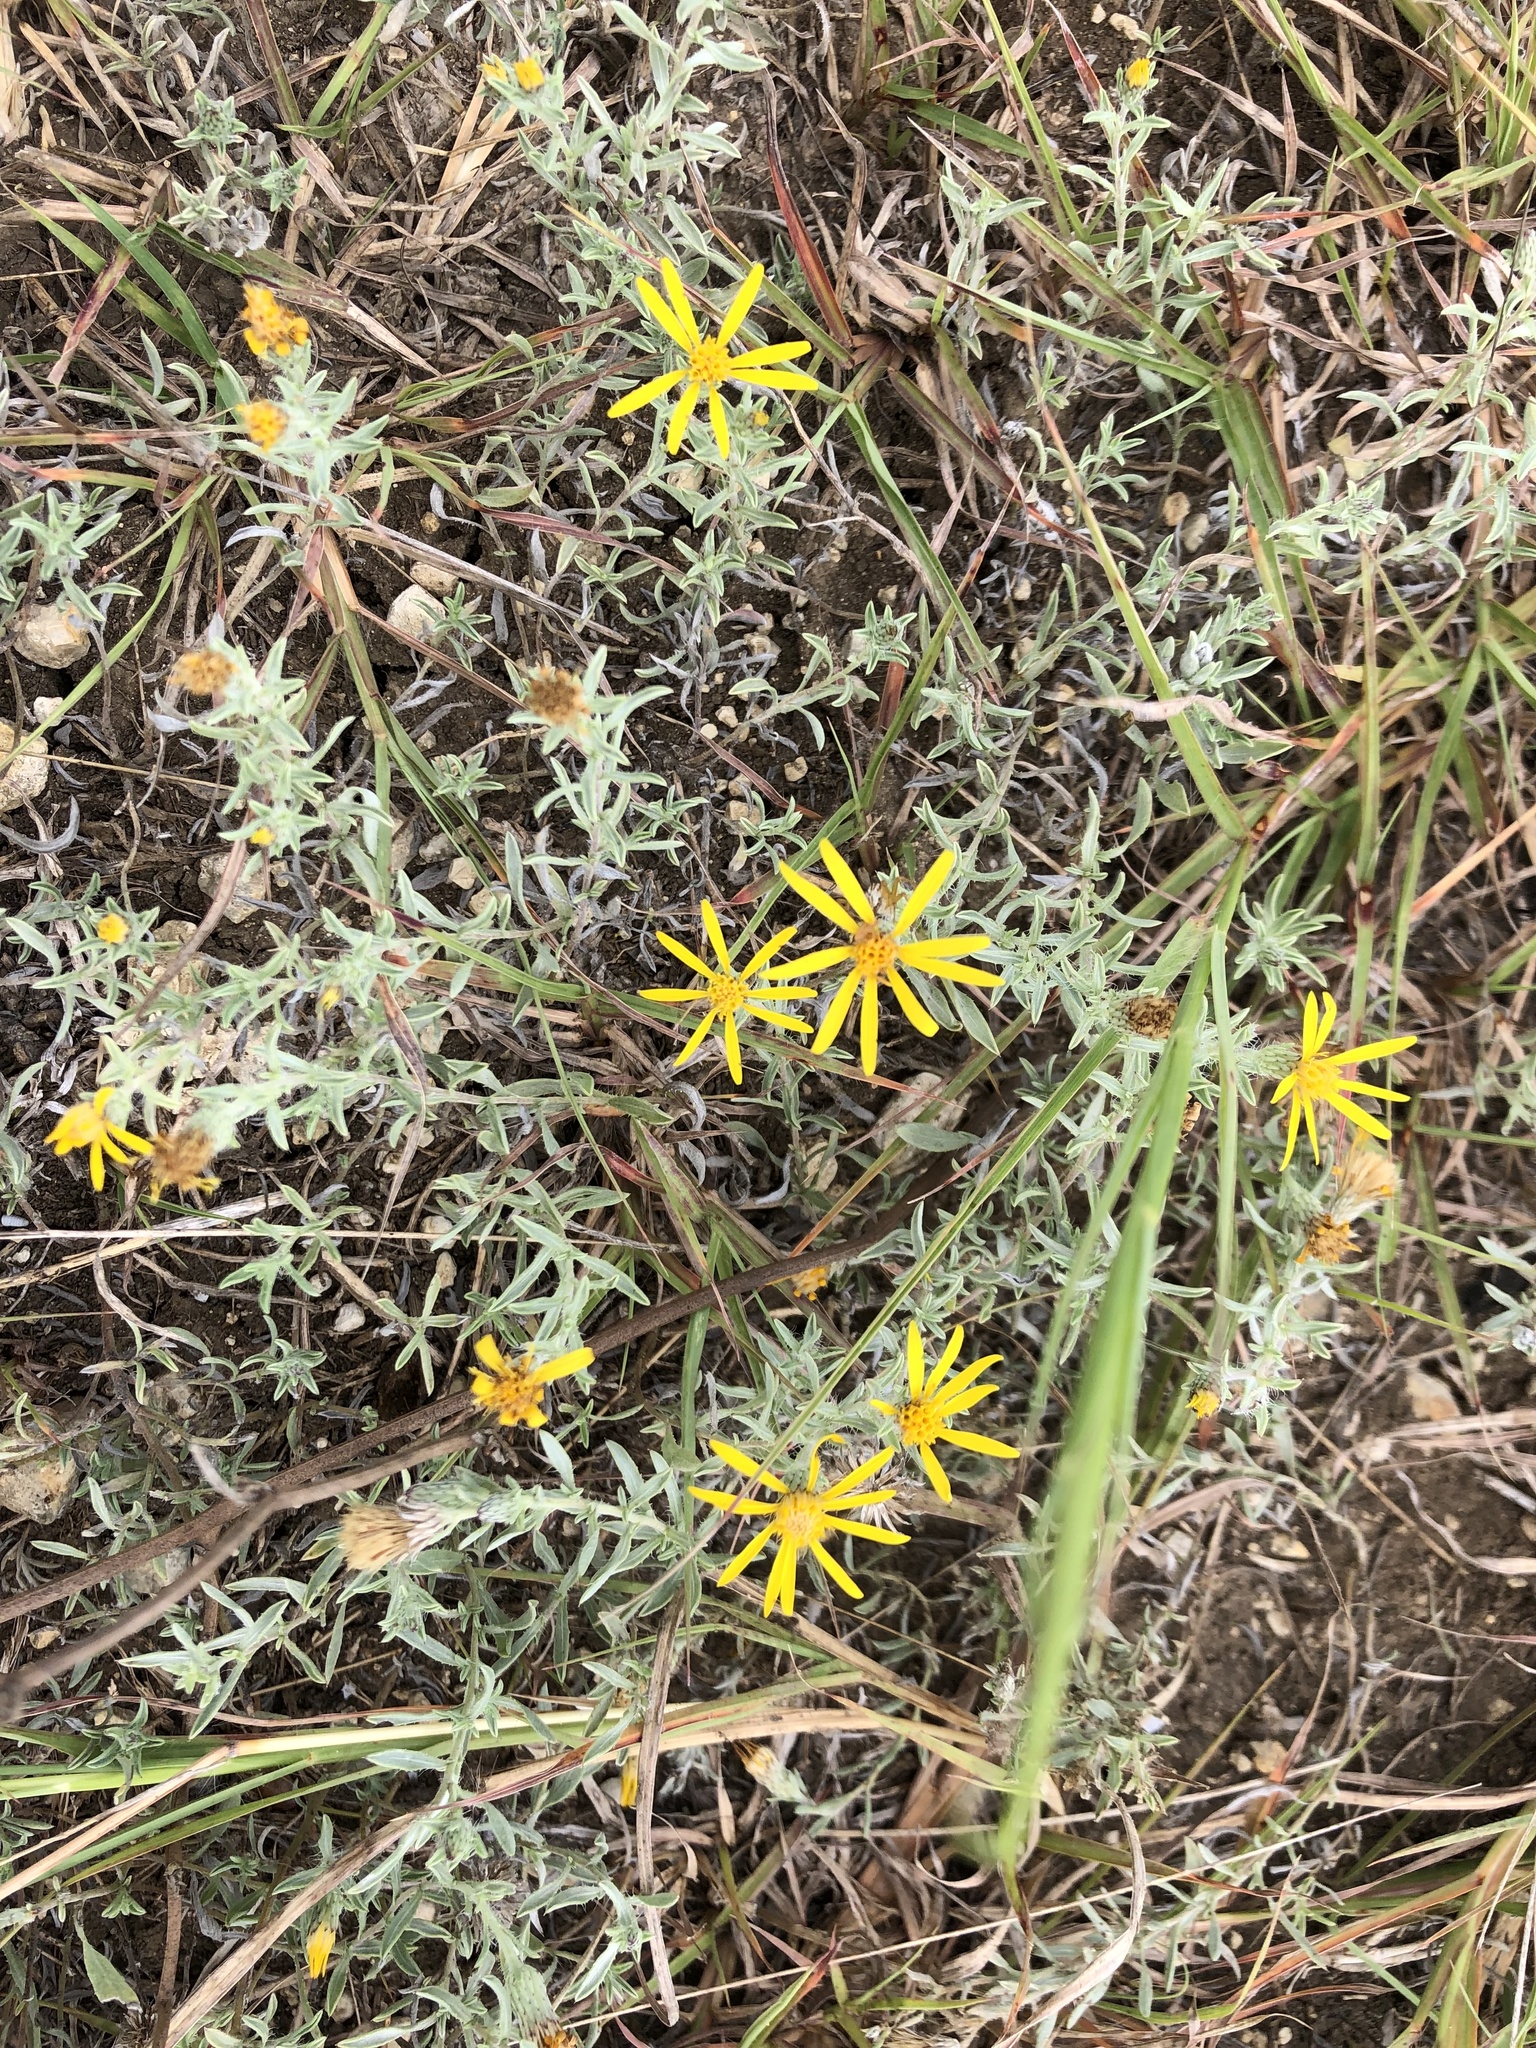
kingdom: Plantae
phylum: Tracheophyta
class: Magnoliopsida
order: Asterales
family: Asteraceae
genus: Heterotheca
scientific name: Heterotheca canescens
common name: Hoary golden-aster
